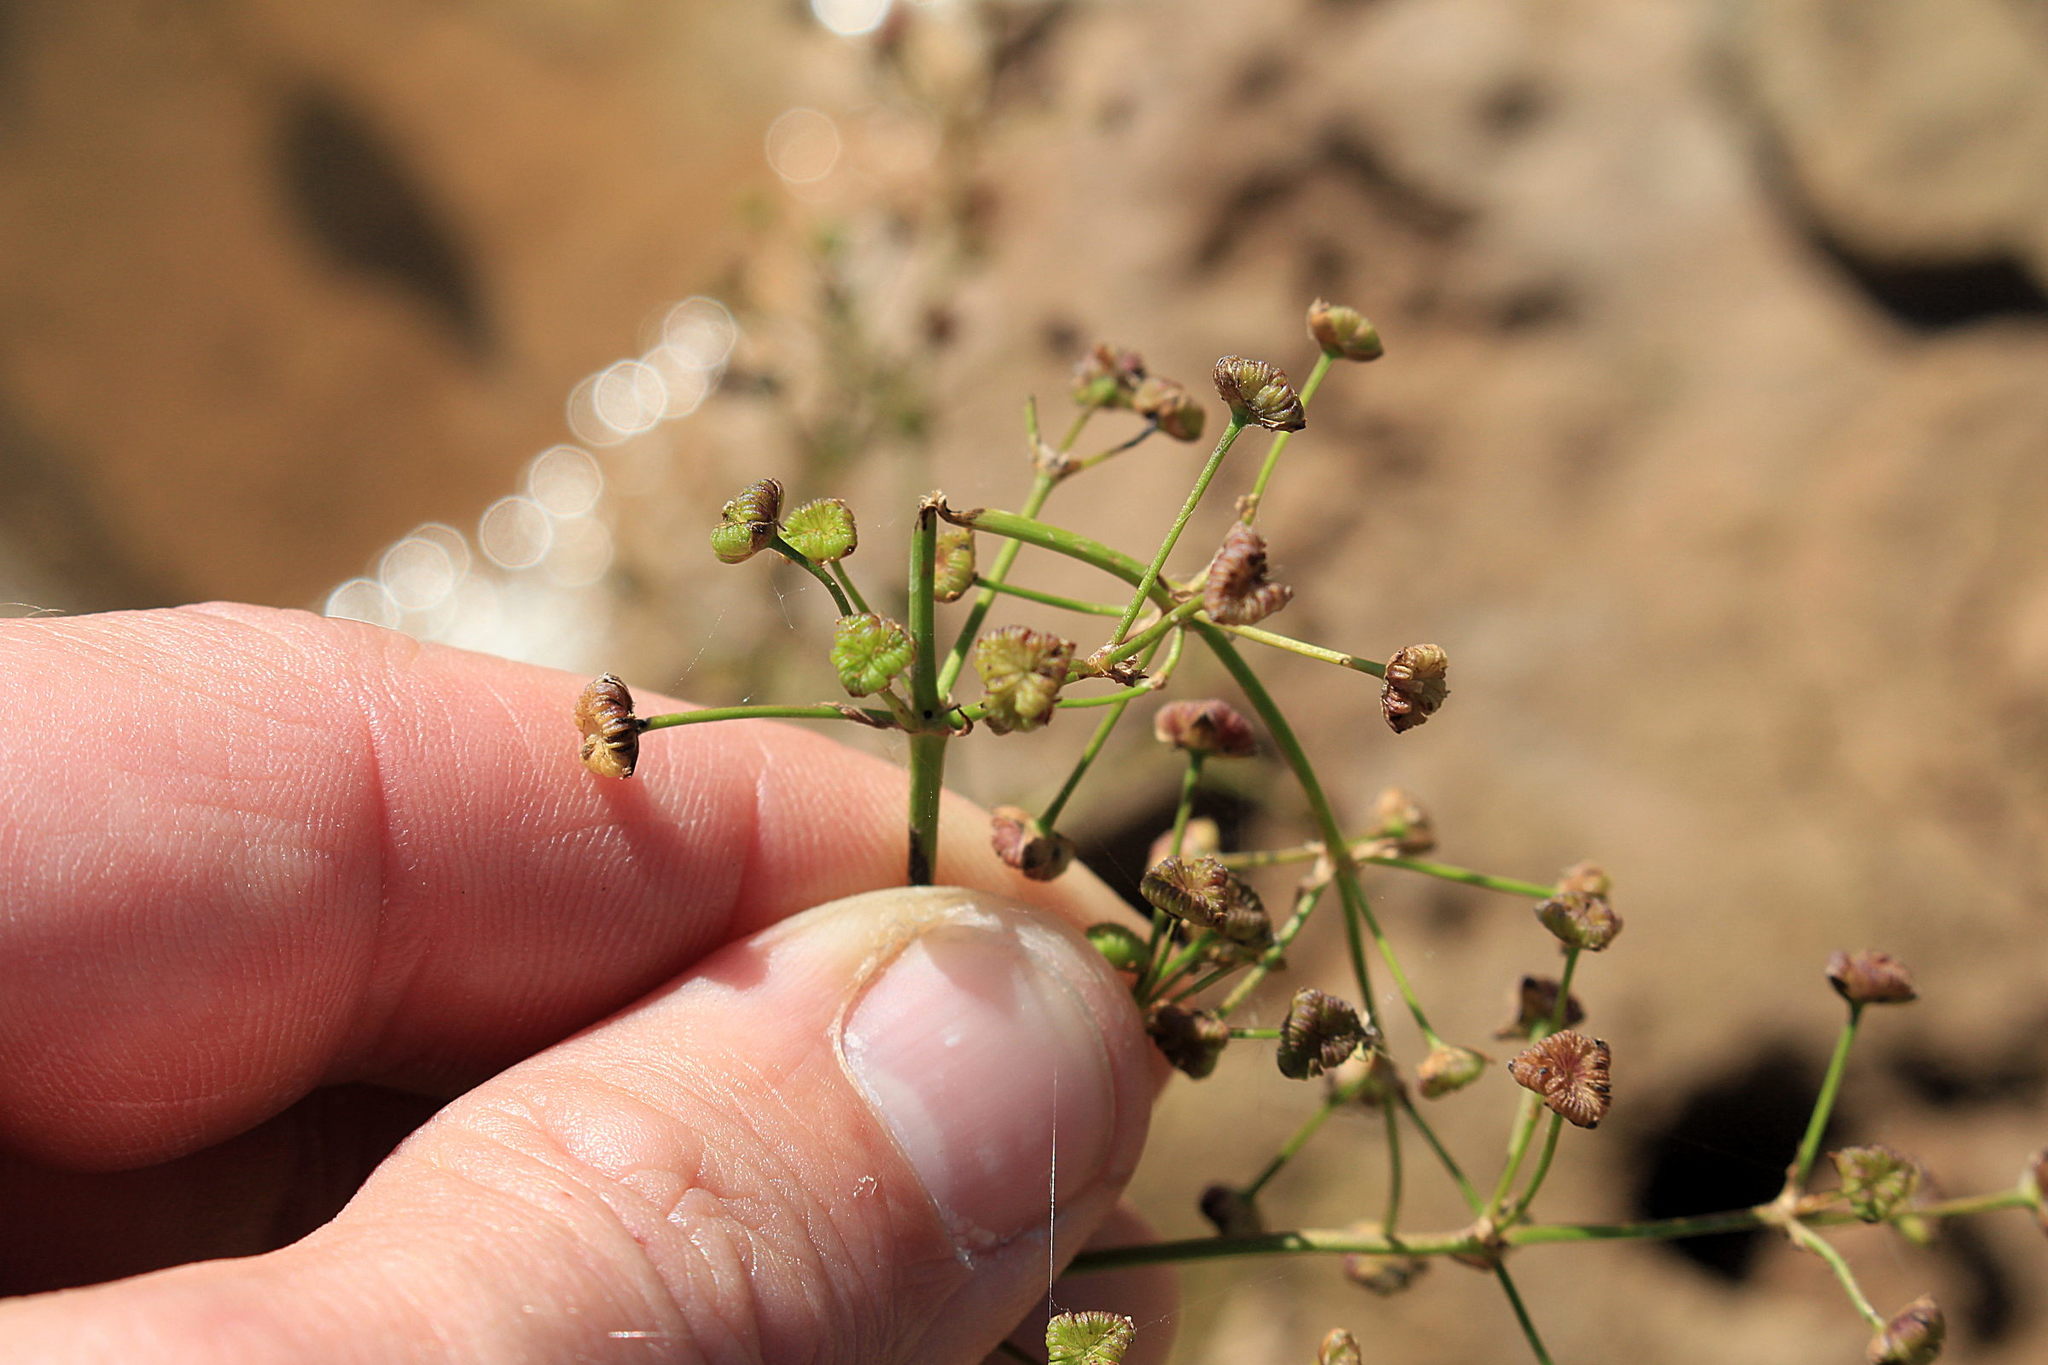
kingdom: Plantae
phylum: Tracheophyta
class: Liliopsida
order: Alismatales
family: Alismataceae
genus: Alisma
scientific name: Alisma plantago-aquatica
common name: Water-plantain
